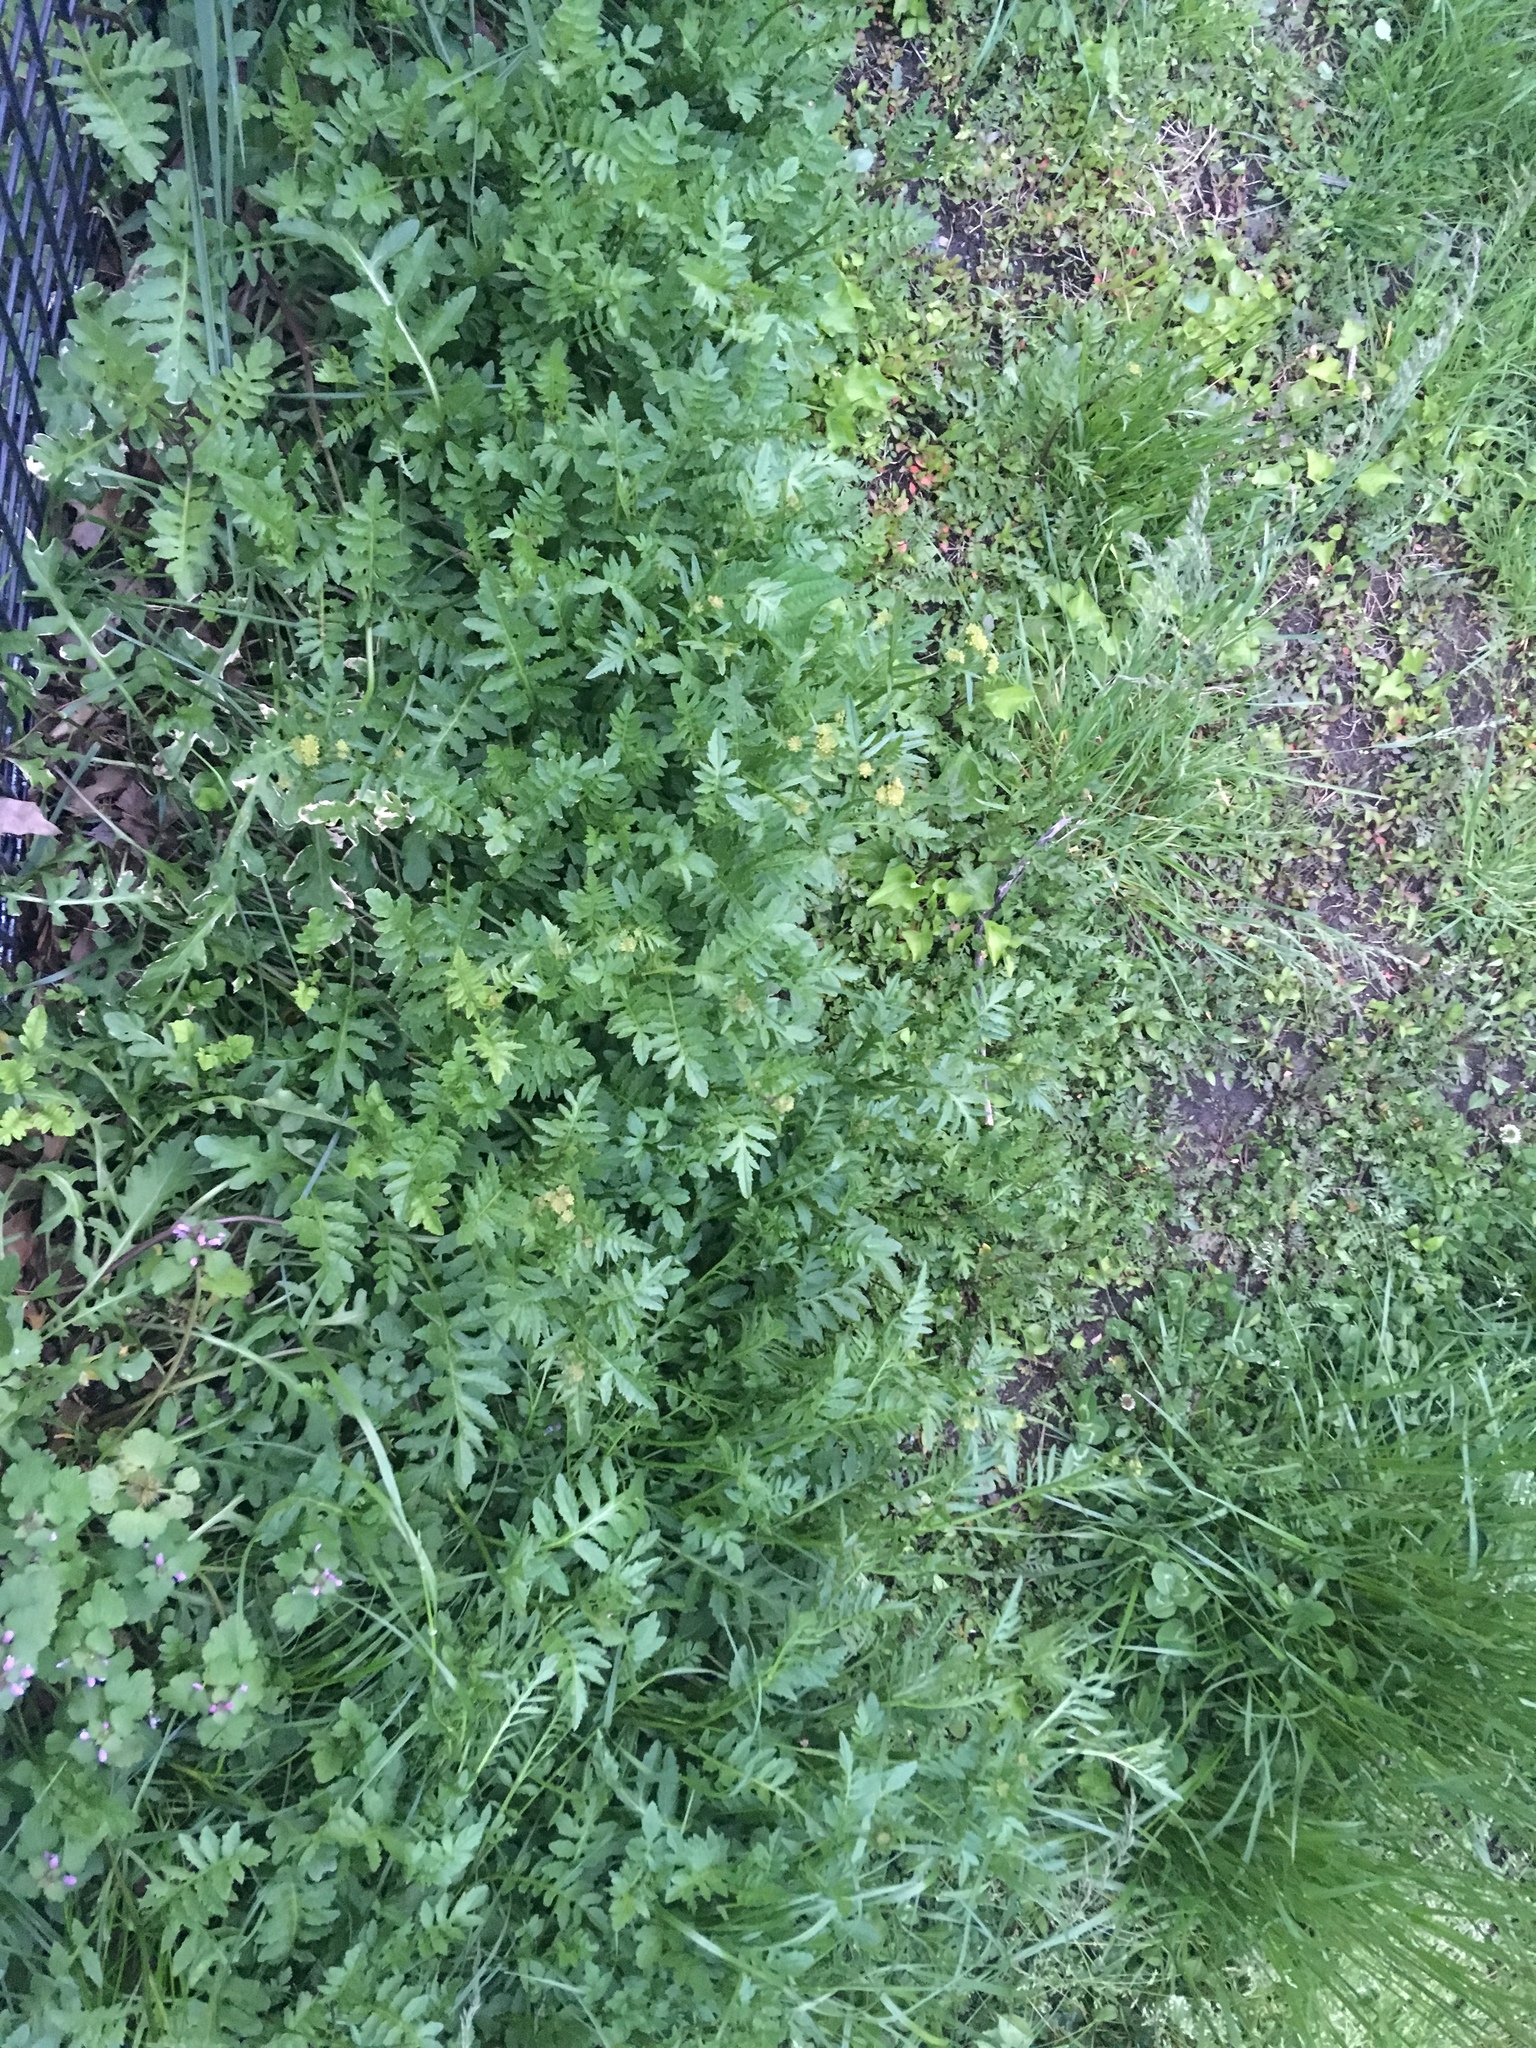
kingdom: Plantae
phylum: Tracheophyta
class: Magnoliopsida
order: Brassicales
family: Brassicaceae
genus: Rorippa
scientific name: Rorippa sylvestris
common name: Creeping yellowcress
